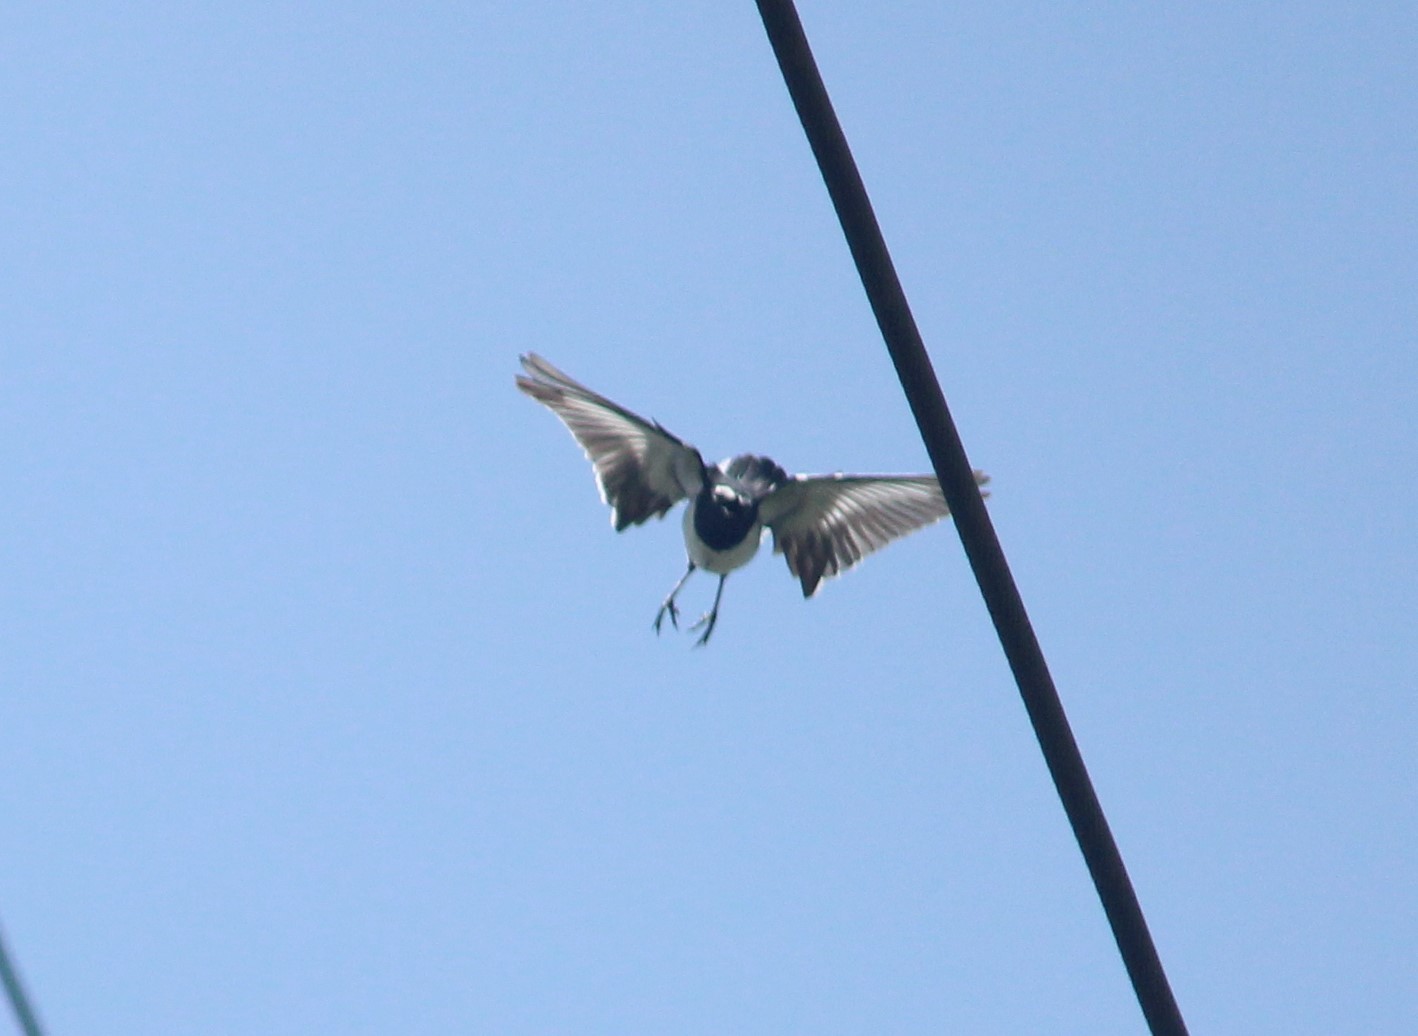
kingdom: Animalia
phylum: Chordata
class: Aves
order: Passeriformes
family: Motacillidae
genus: Motacilla
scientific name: Motacilla maderaspatensis
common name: White-browed wagtail
